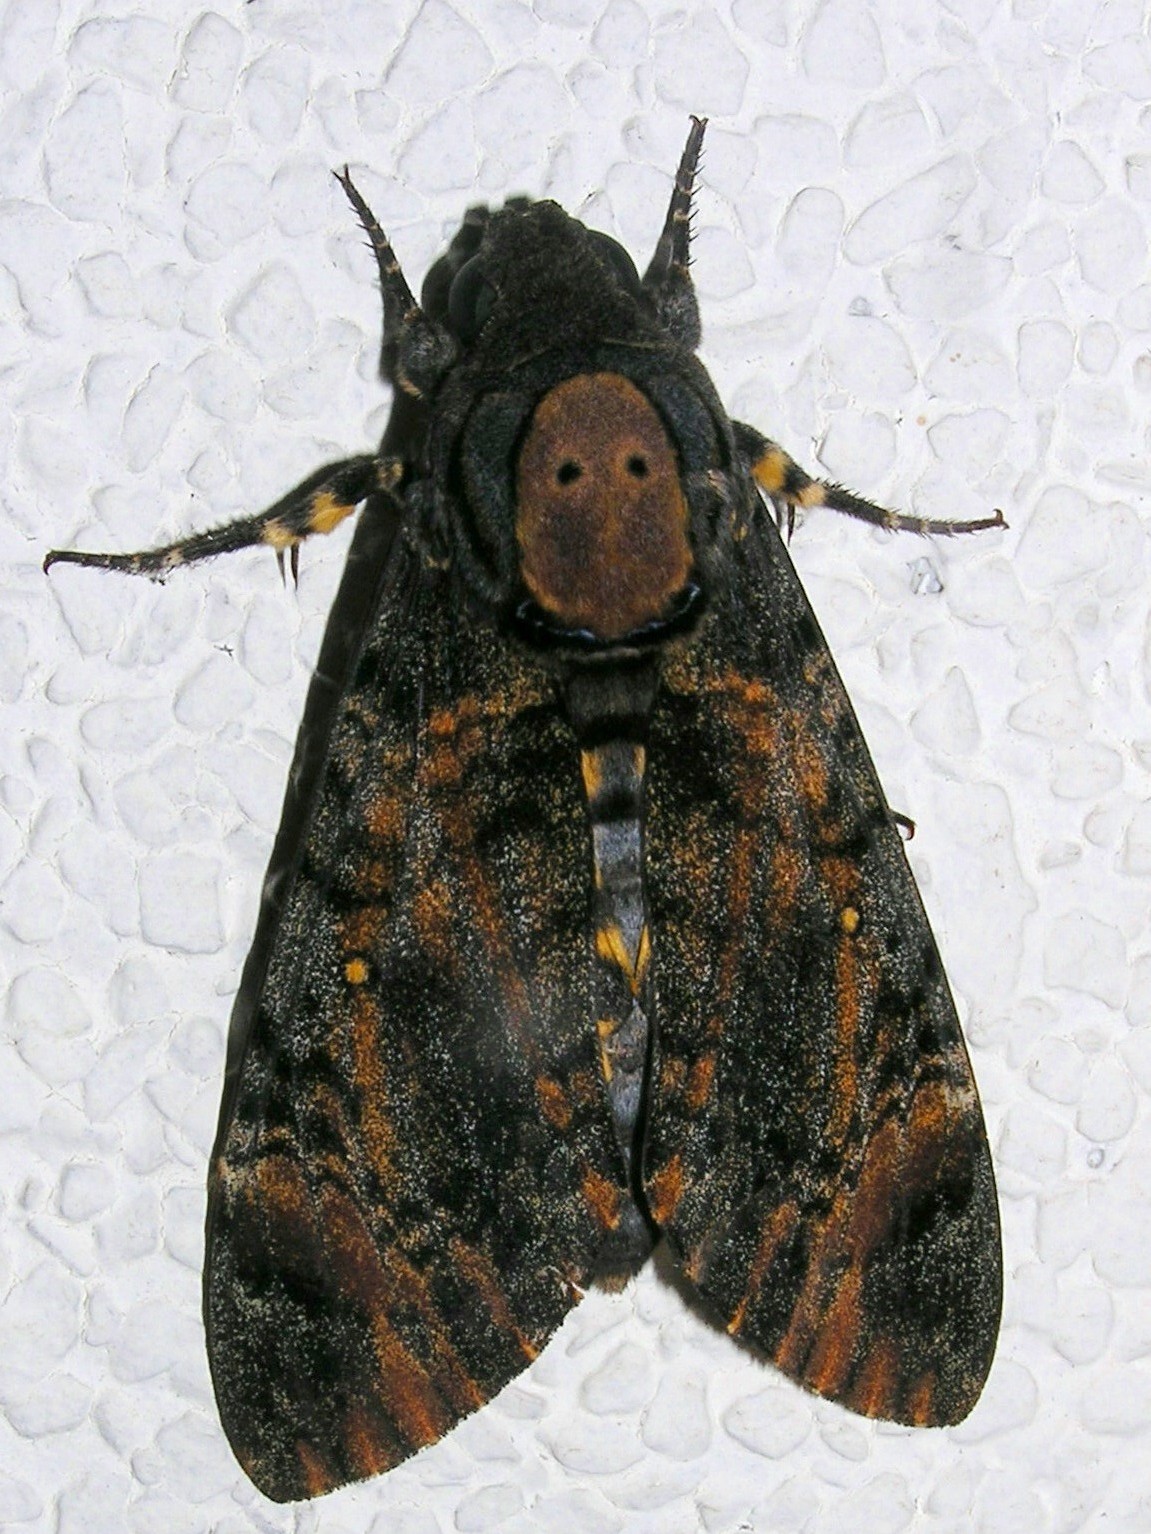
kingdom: Animalia
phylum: Arthropoda
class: Insecta
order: Lepidoptera
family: Sphingidae
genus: Acherontia
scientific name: Acherontia styx
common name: Death's-head hawk moth
